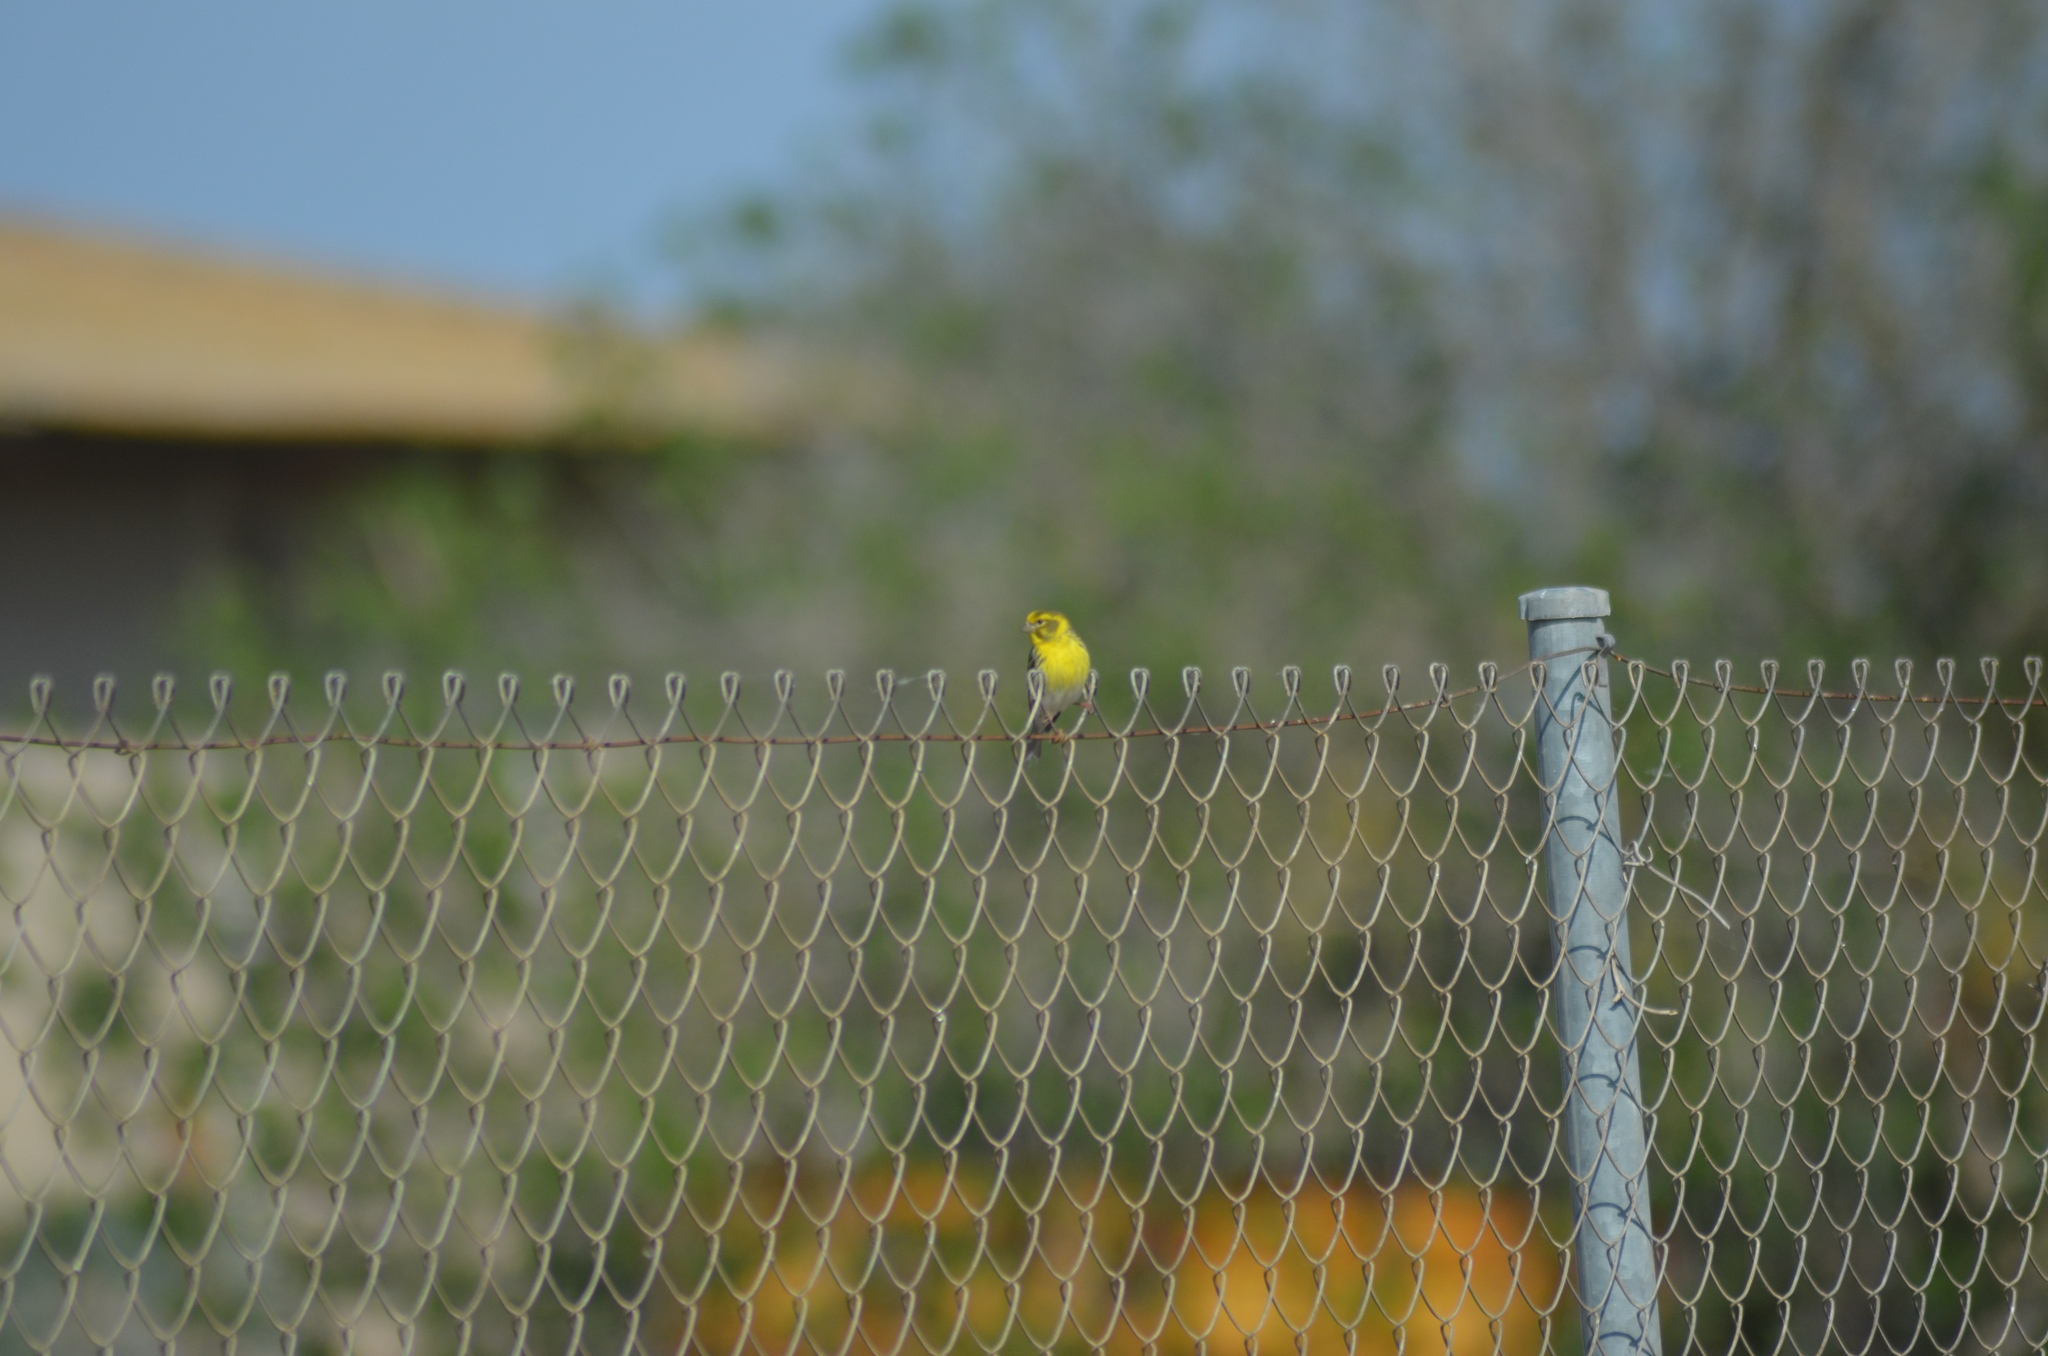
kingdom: Animalia
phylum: Chordata
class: Aves
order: Passeriformes
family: Fringillidae
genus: Serinus
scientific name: Serinus serinus
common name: European serin
